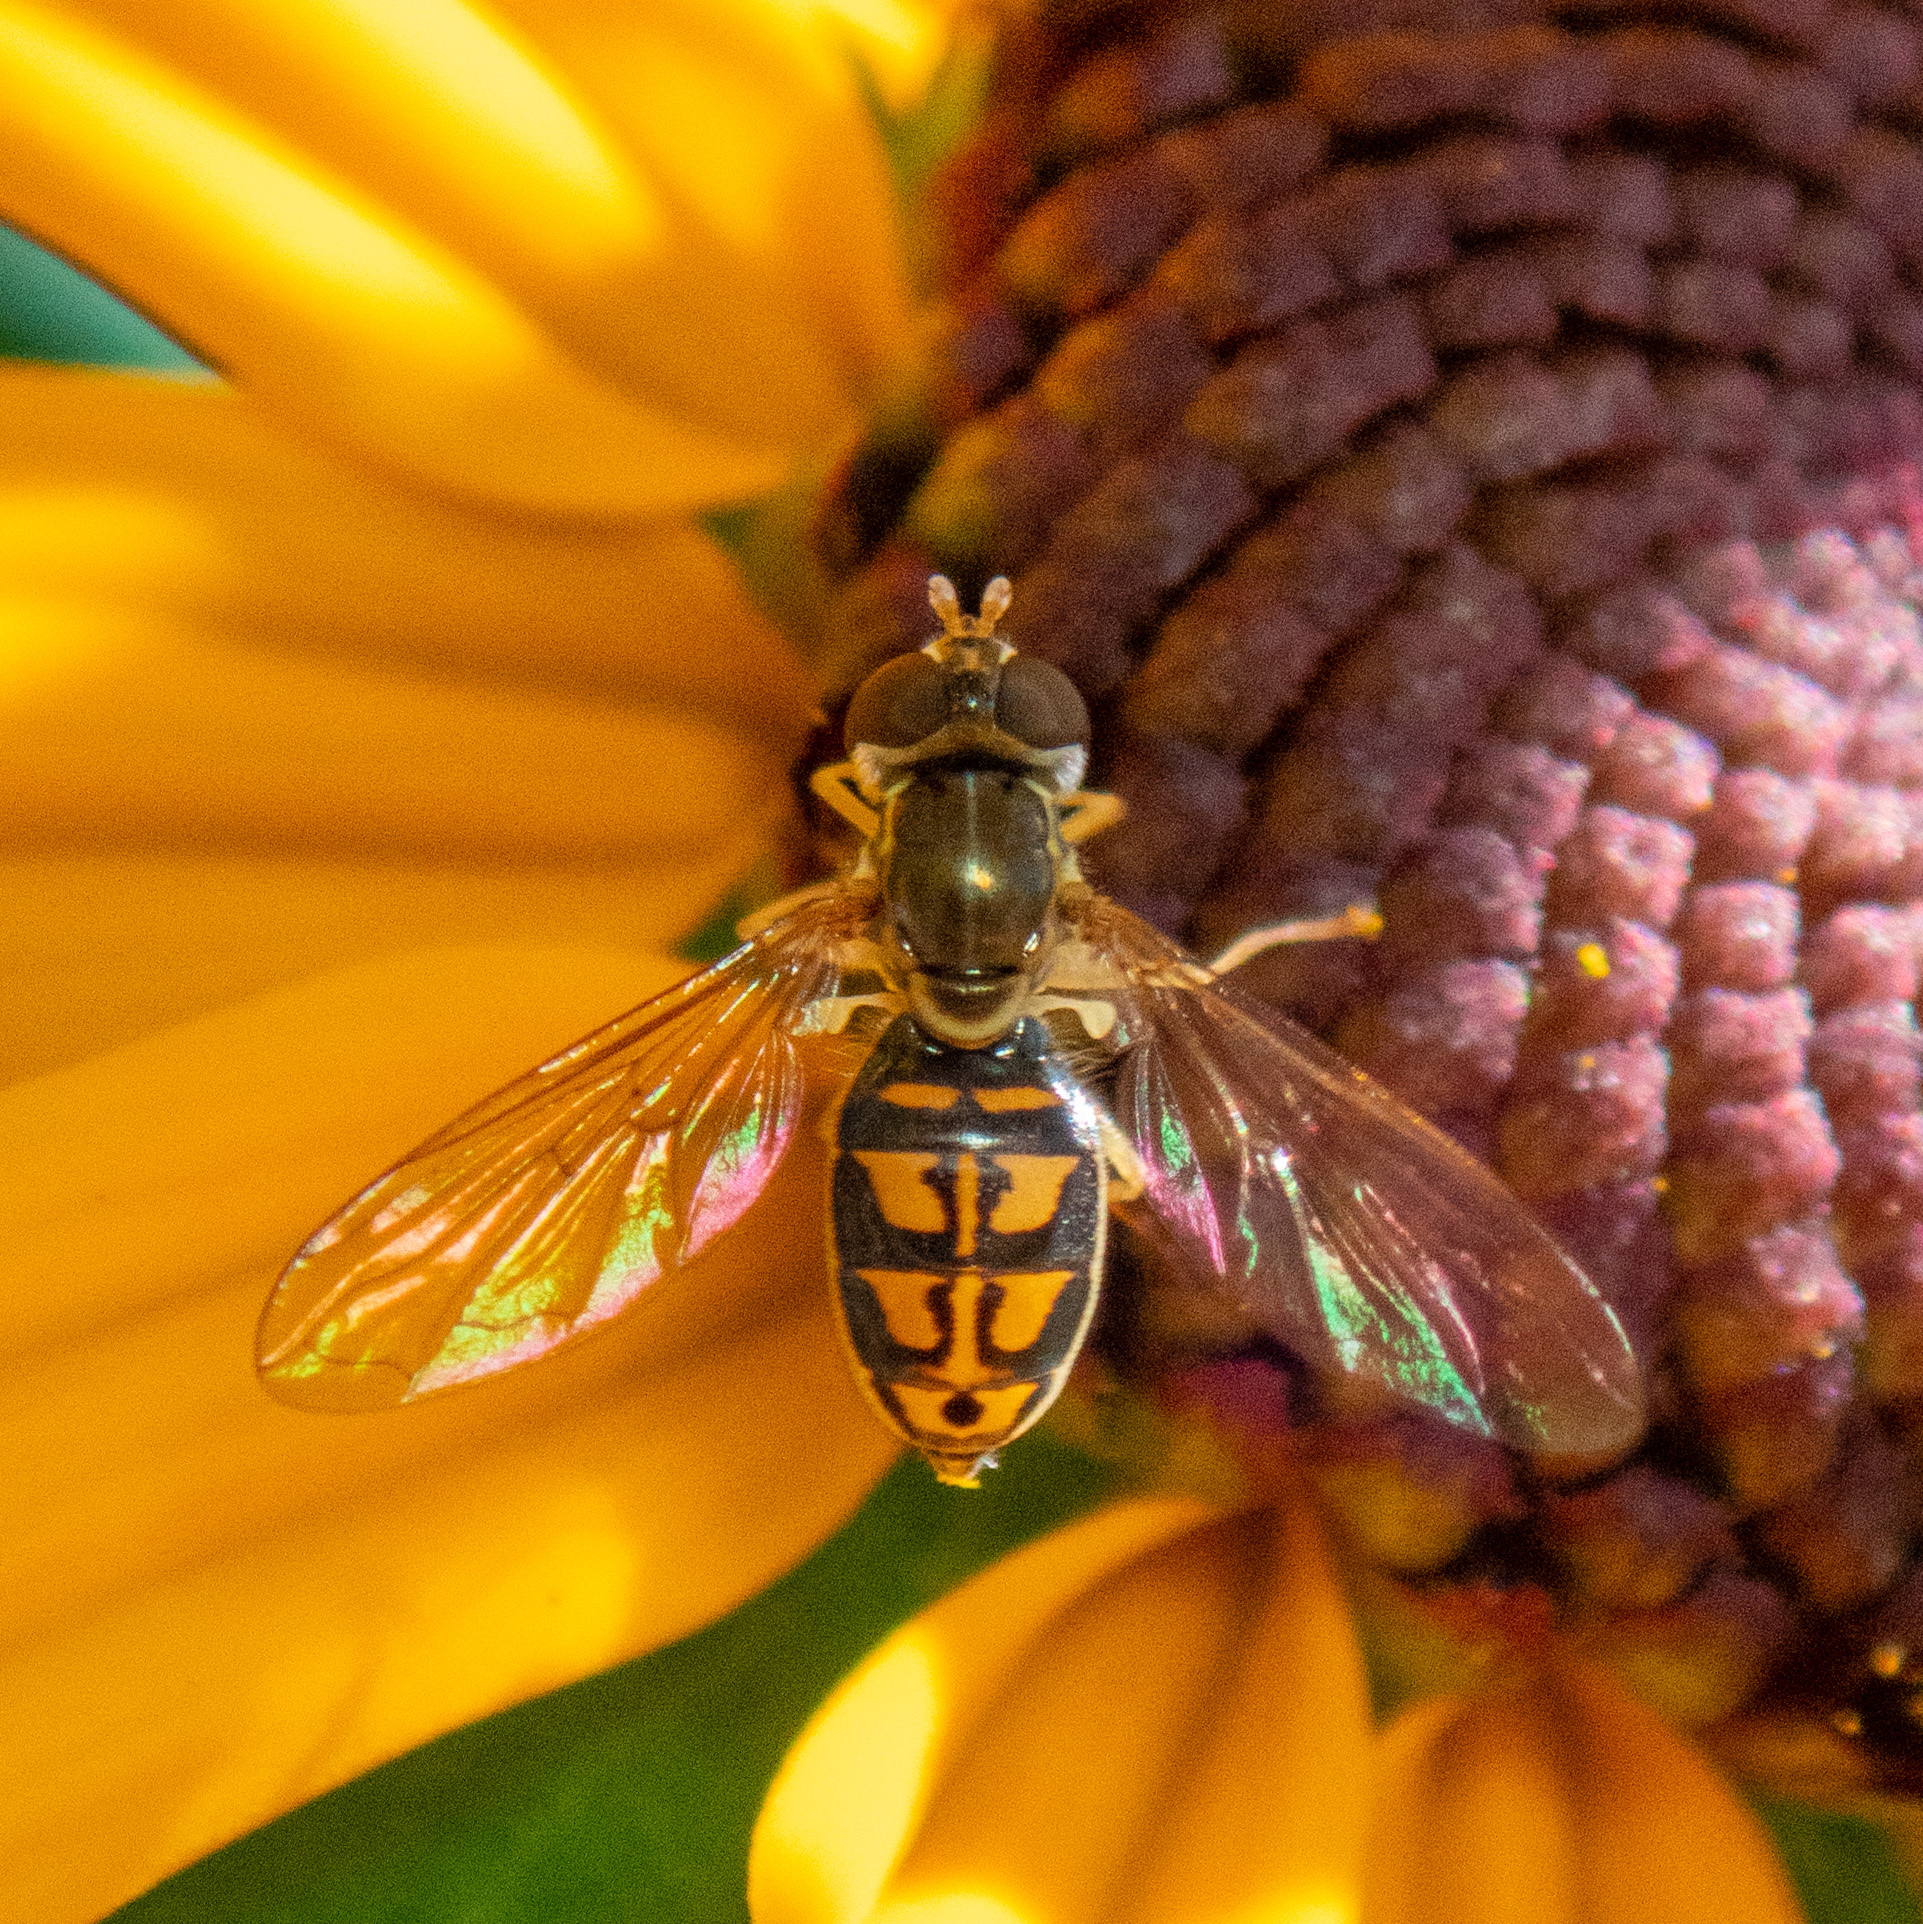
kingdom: Animalia
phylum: Arthropoda
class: Insecta
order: Diptera
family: Syrphidae
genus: Toxomerus
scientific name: Toxomerus marginatus
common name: Syrphid fly
